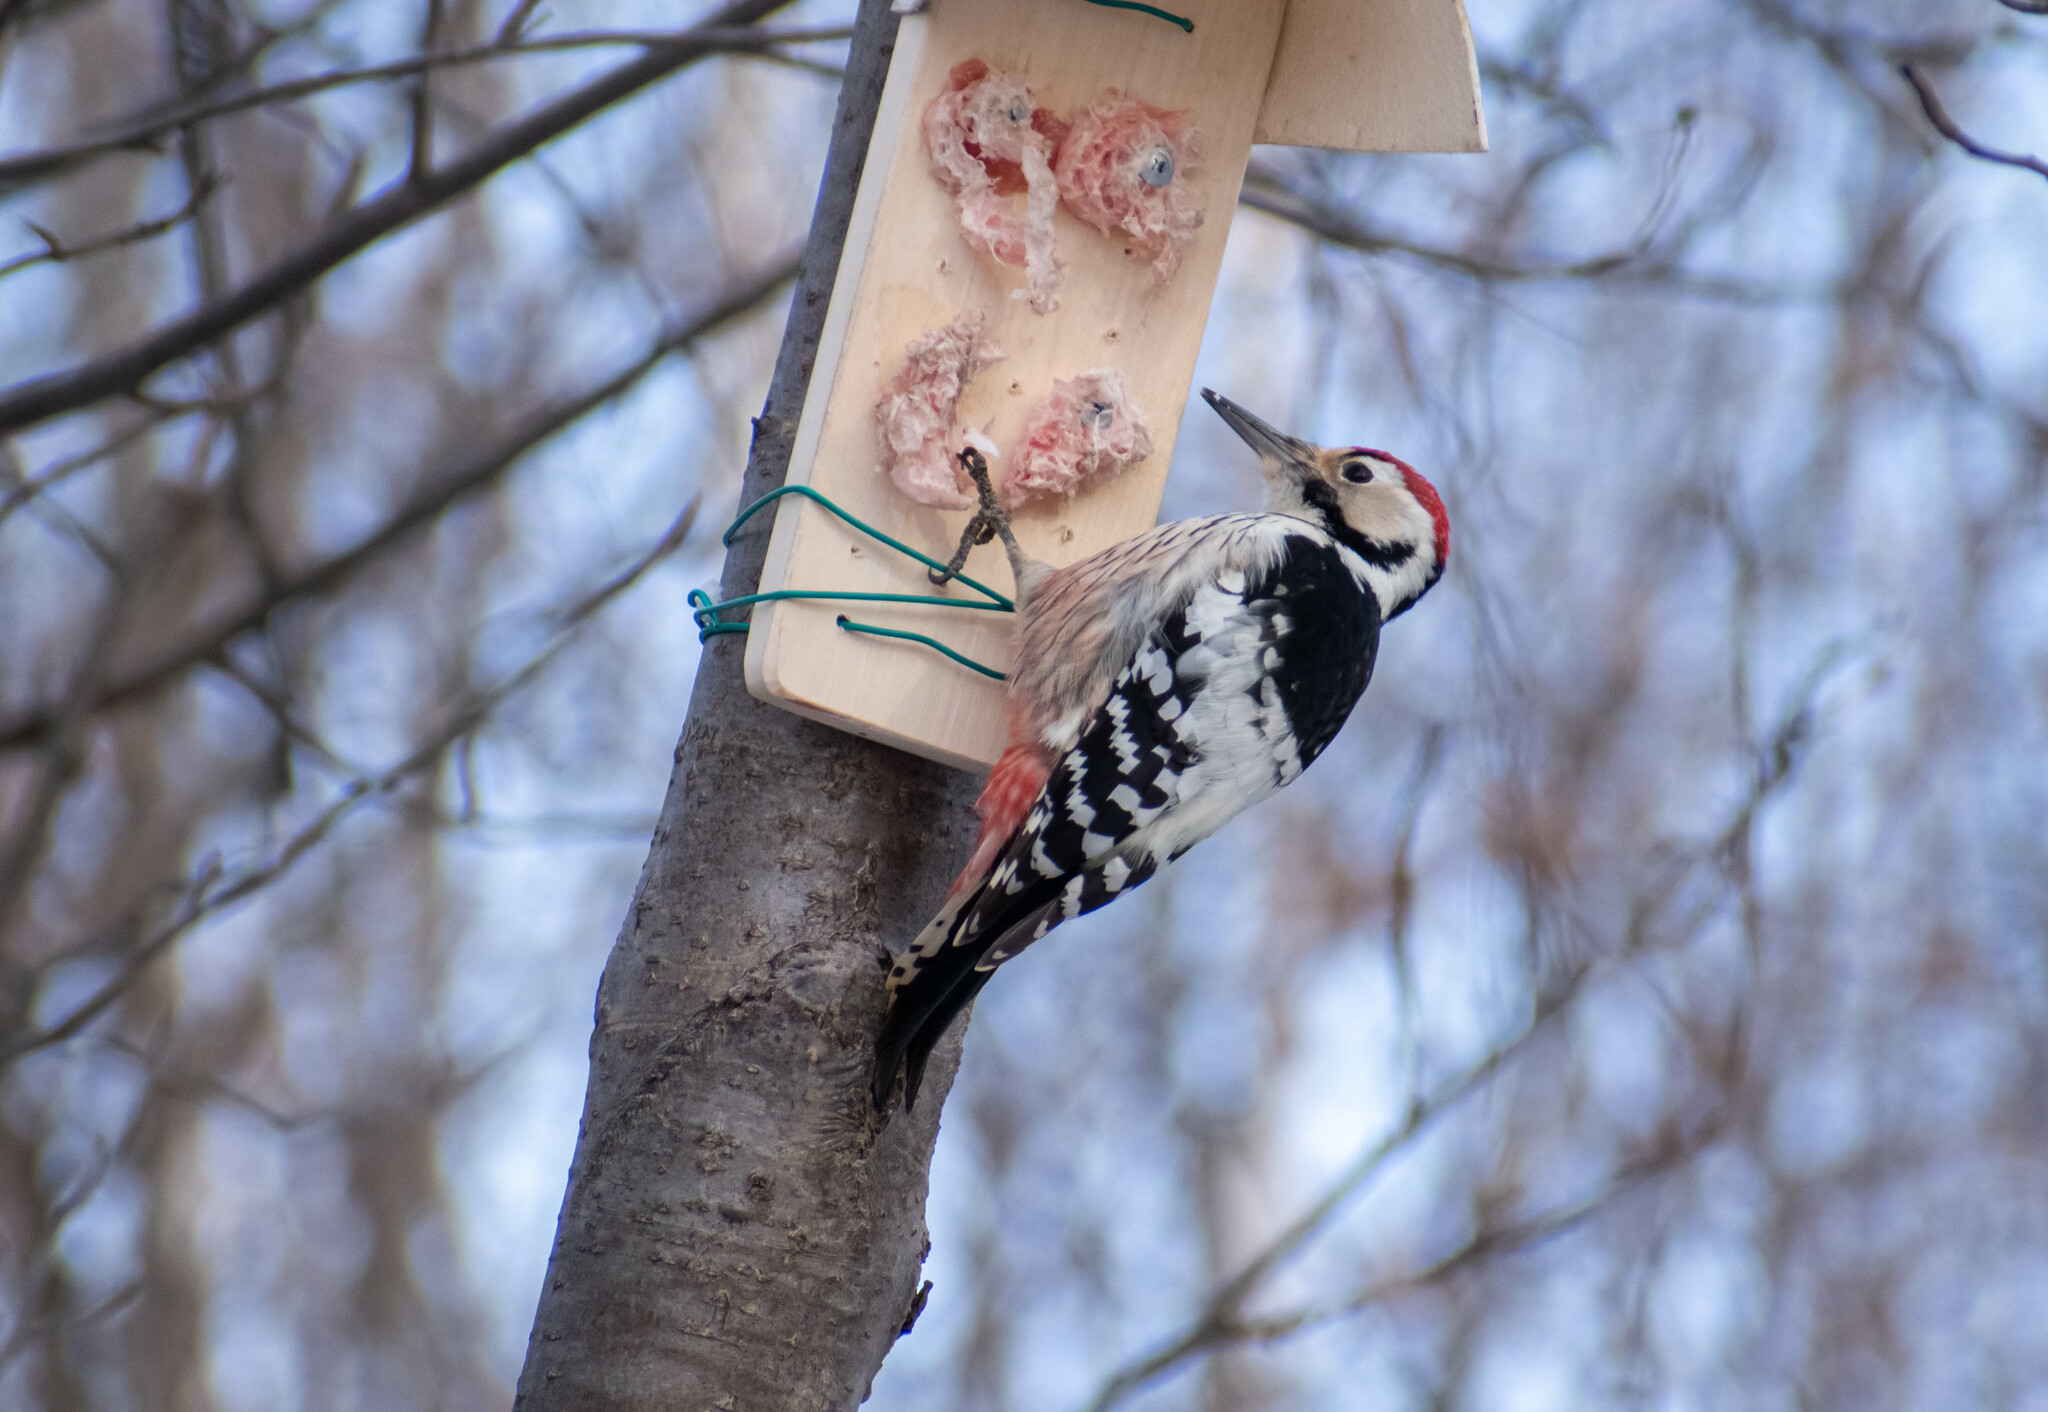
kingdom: Animalia
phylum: Chordata
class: Aves
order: Piciformes
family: Picidae
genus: Dendrocopos
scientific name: Dendrocopos leucotos
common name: White-backed woodpecker
